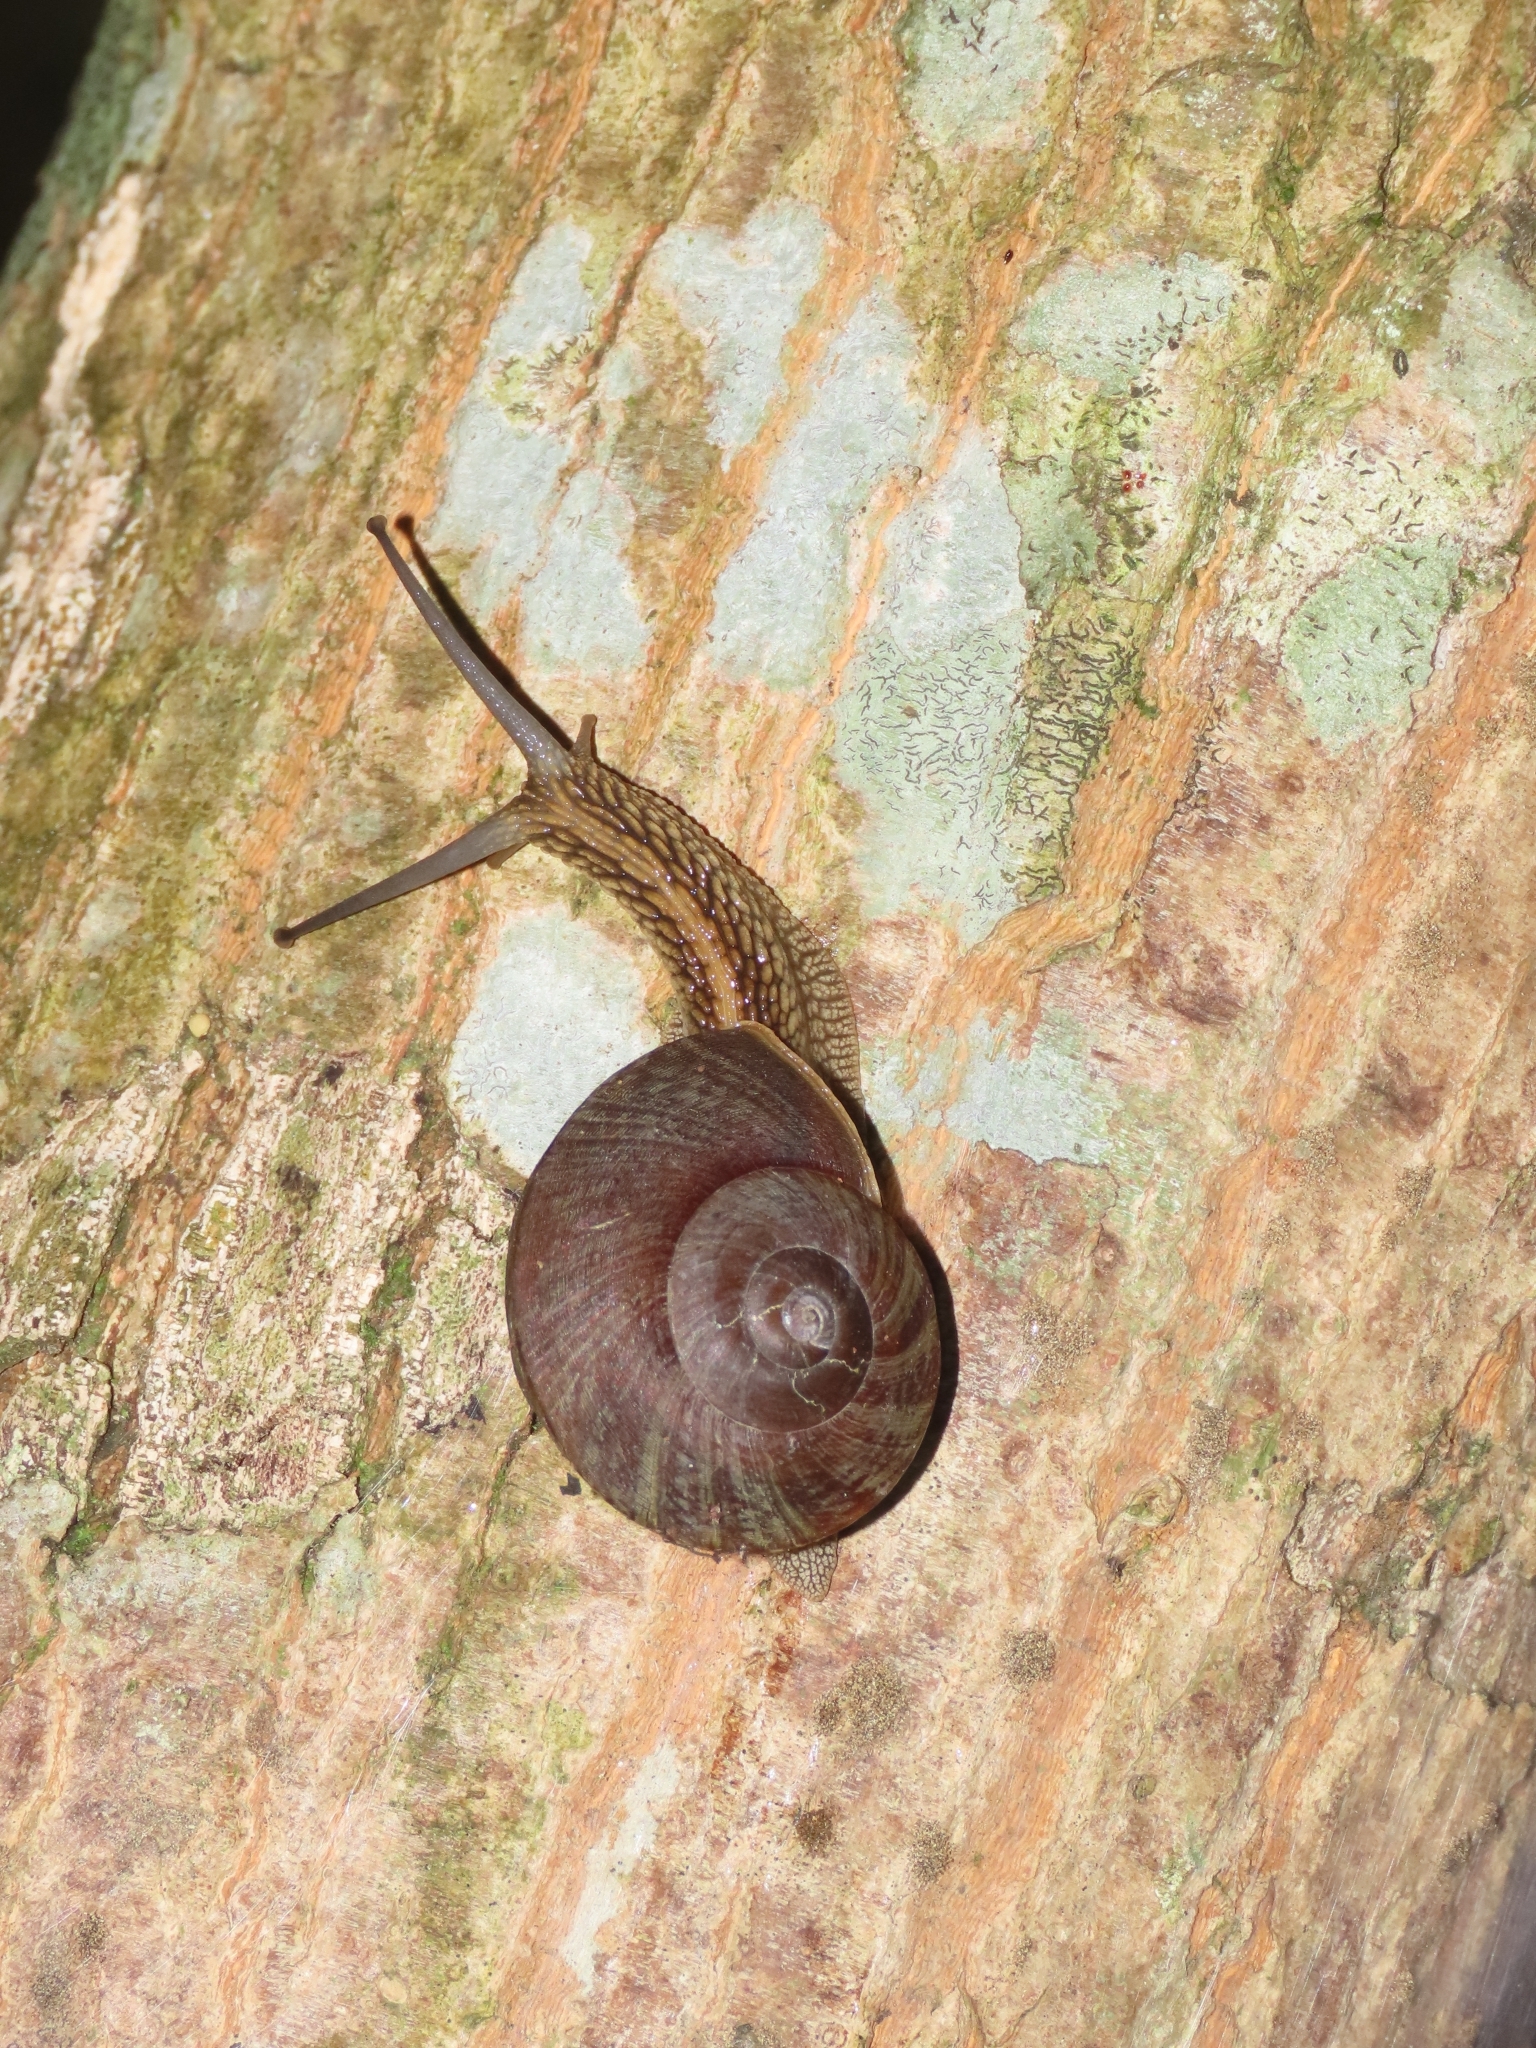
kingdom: Animalia
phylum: Mollusca
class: Gastropoda
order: Stylommatophora
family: Camaenidae
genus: Nesiohelix
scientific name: Nesiohelix swinhoei
